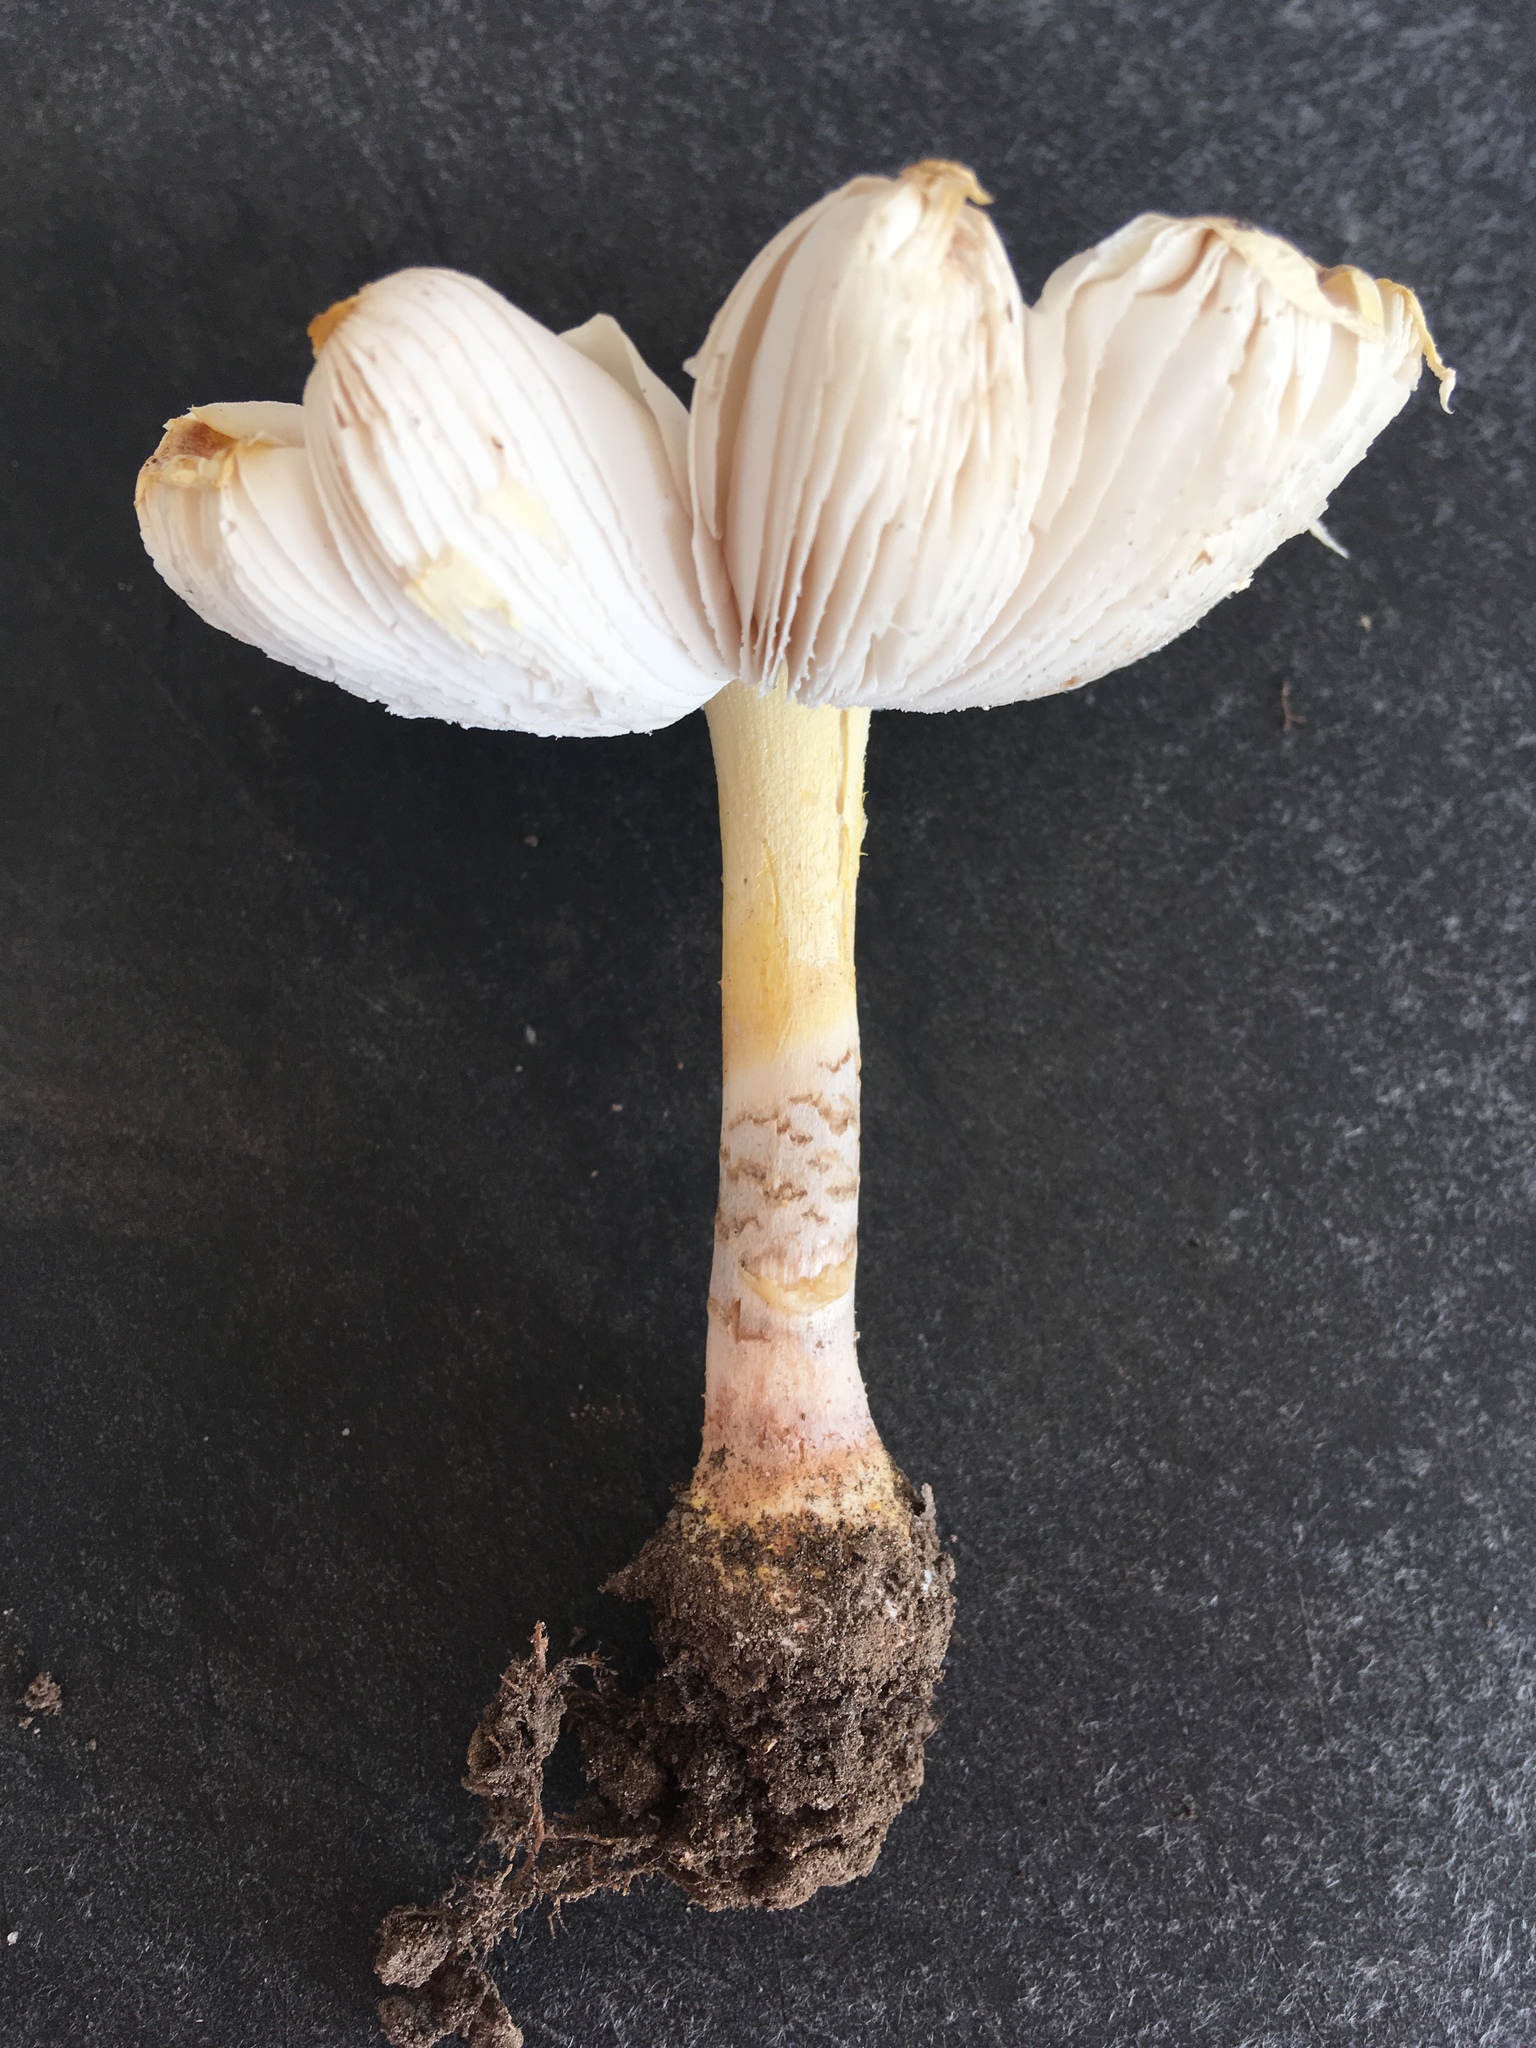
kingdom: Fungi
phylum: Basidiomycota
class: Agaricomycetes
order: Agaricales
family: Amanitaceae
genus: Amanita
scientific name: Amanita flavorubens
